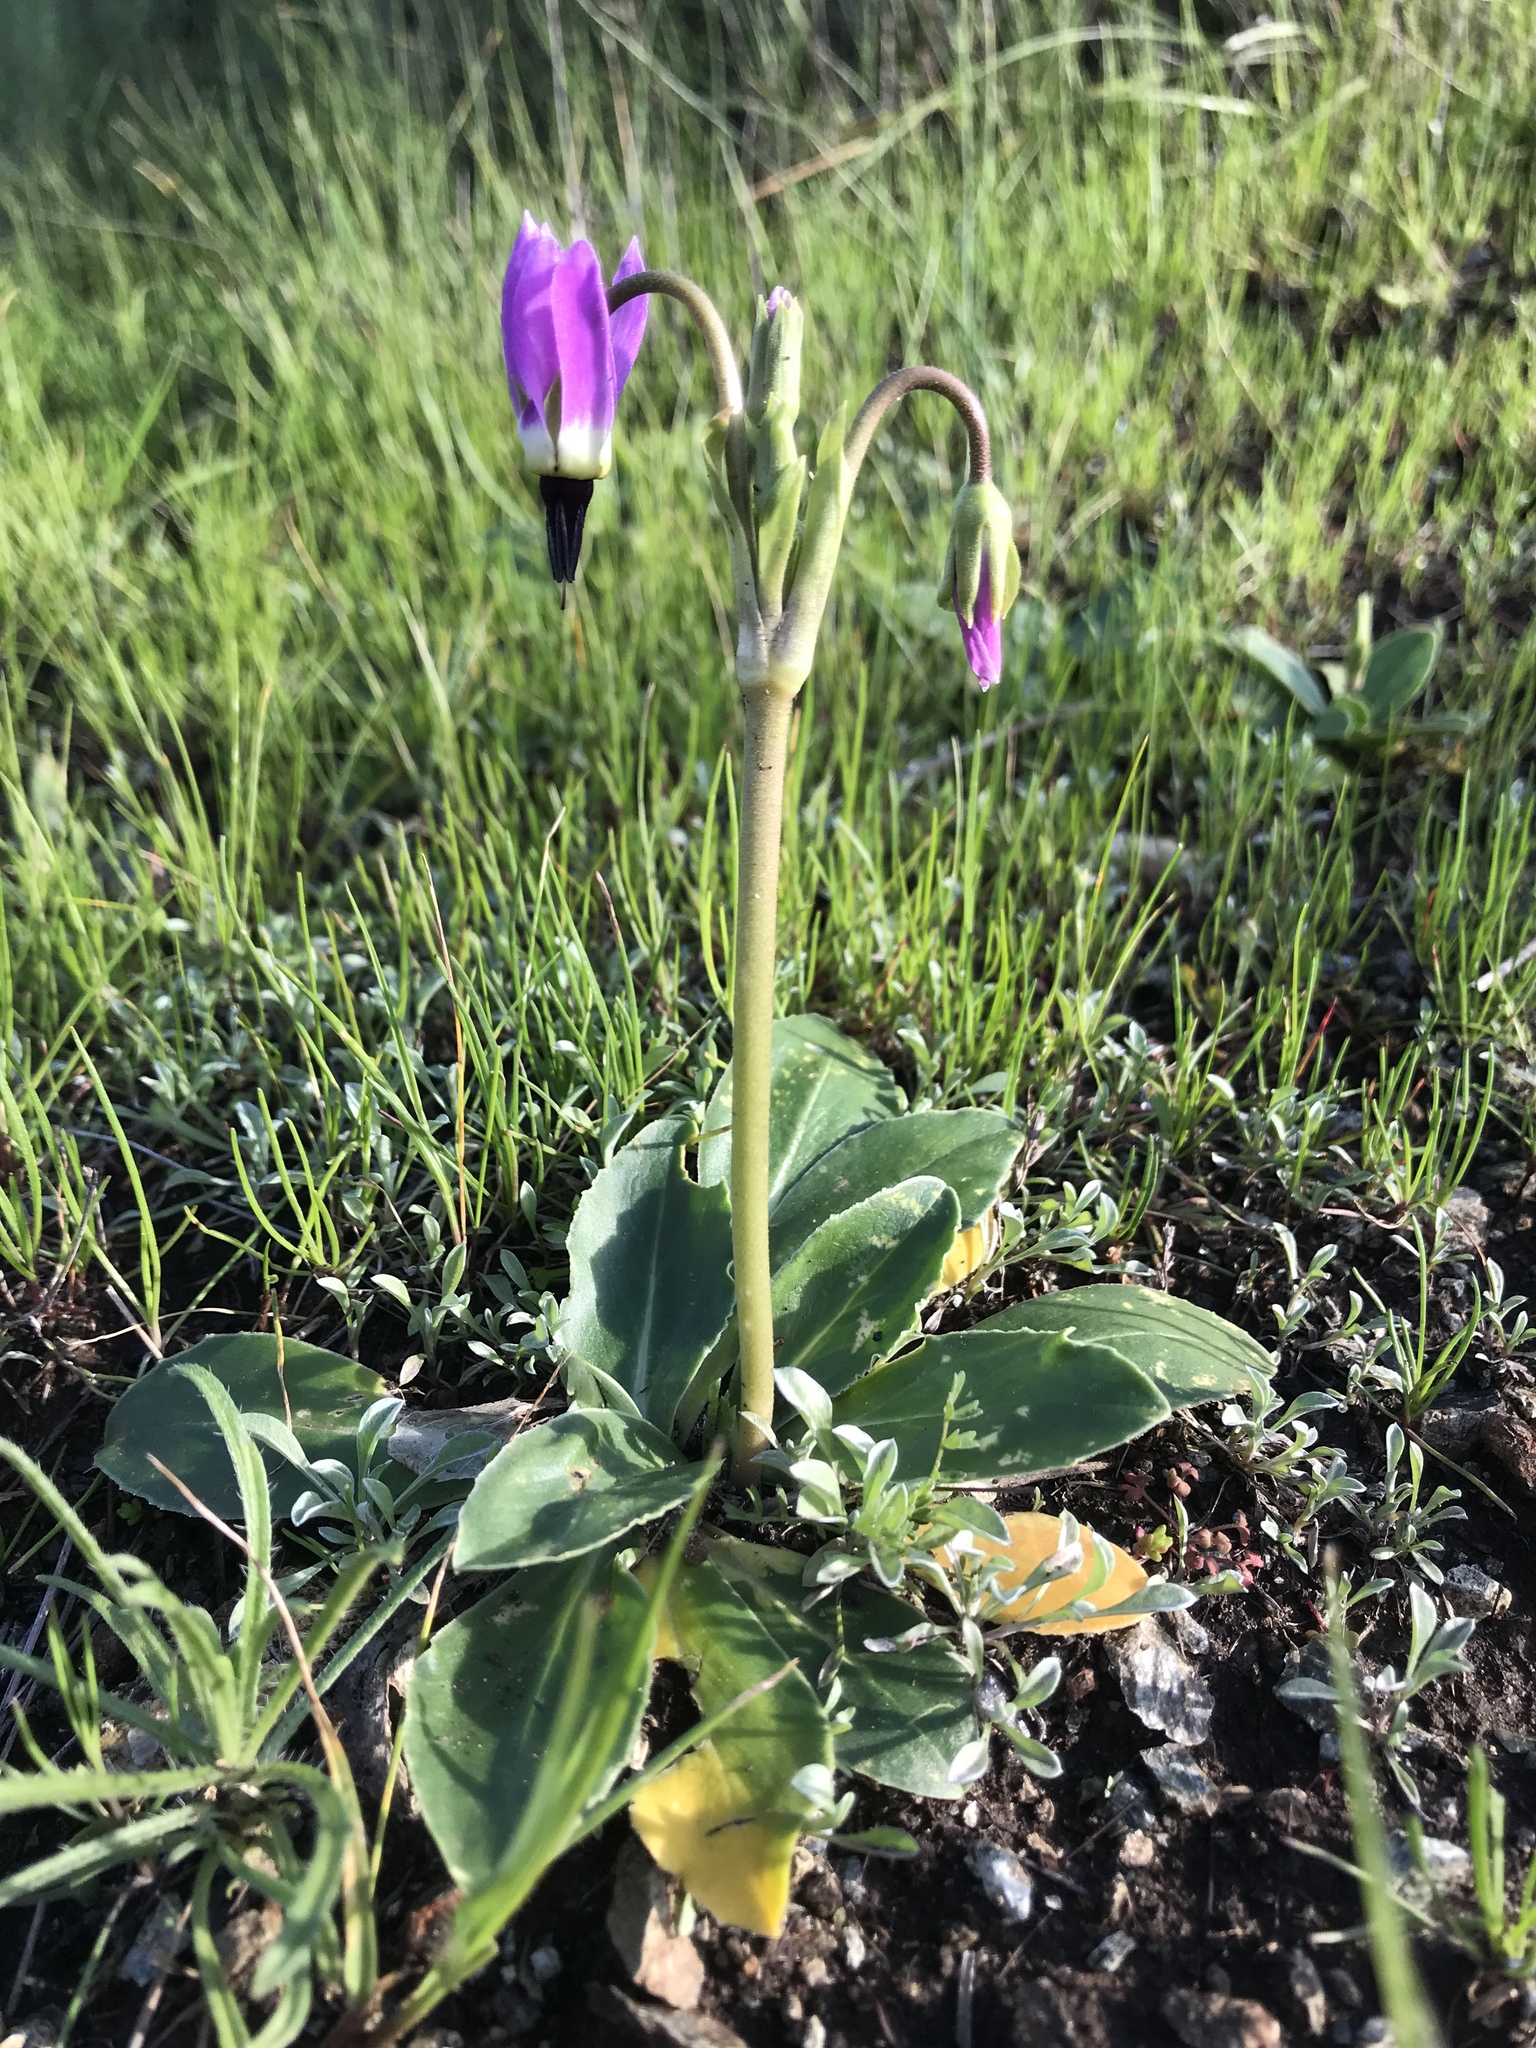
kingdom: Plantae
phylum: Tracheophyta
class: Magnoliopsida
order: Ericales
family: Primulaceae
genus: Dodecatheon
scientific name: Dodecatheon clevelandii
